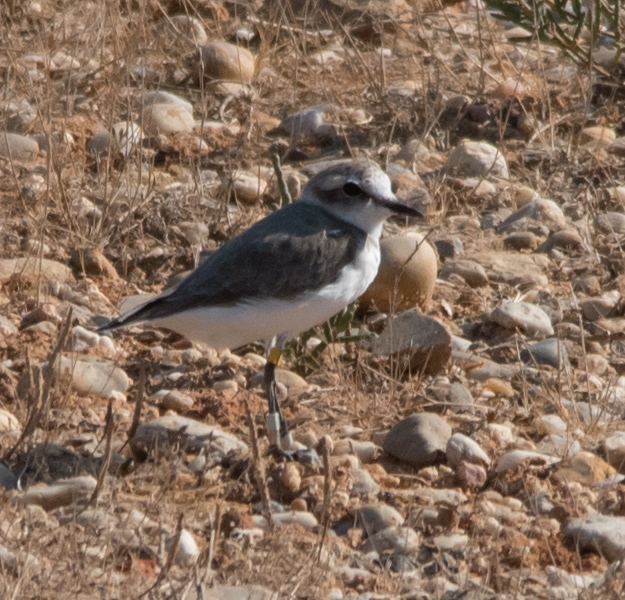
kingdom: Animalia
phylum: Chordata
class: Aves
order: Charadriiformes
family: Charadriidae
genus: Charadrius
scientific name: Charadrius alexandrinus
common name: Kentish plover
